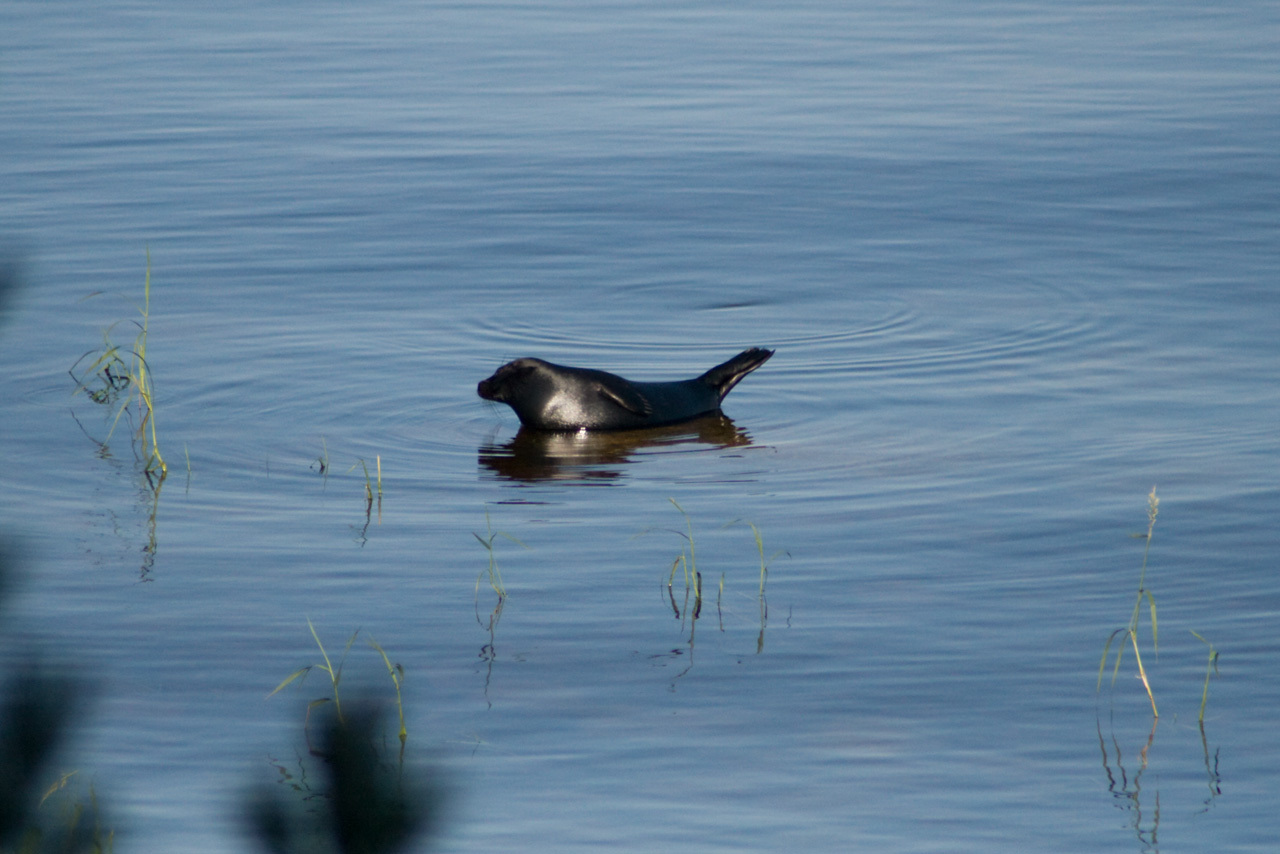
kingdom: Animalia
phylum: Chordata
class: Mammalia
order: Carnivora
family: Phocidae
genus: Pusa
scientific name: Pusa hispida
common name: Ringed seal
